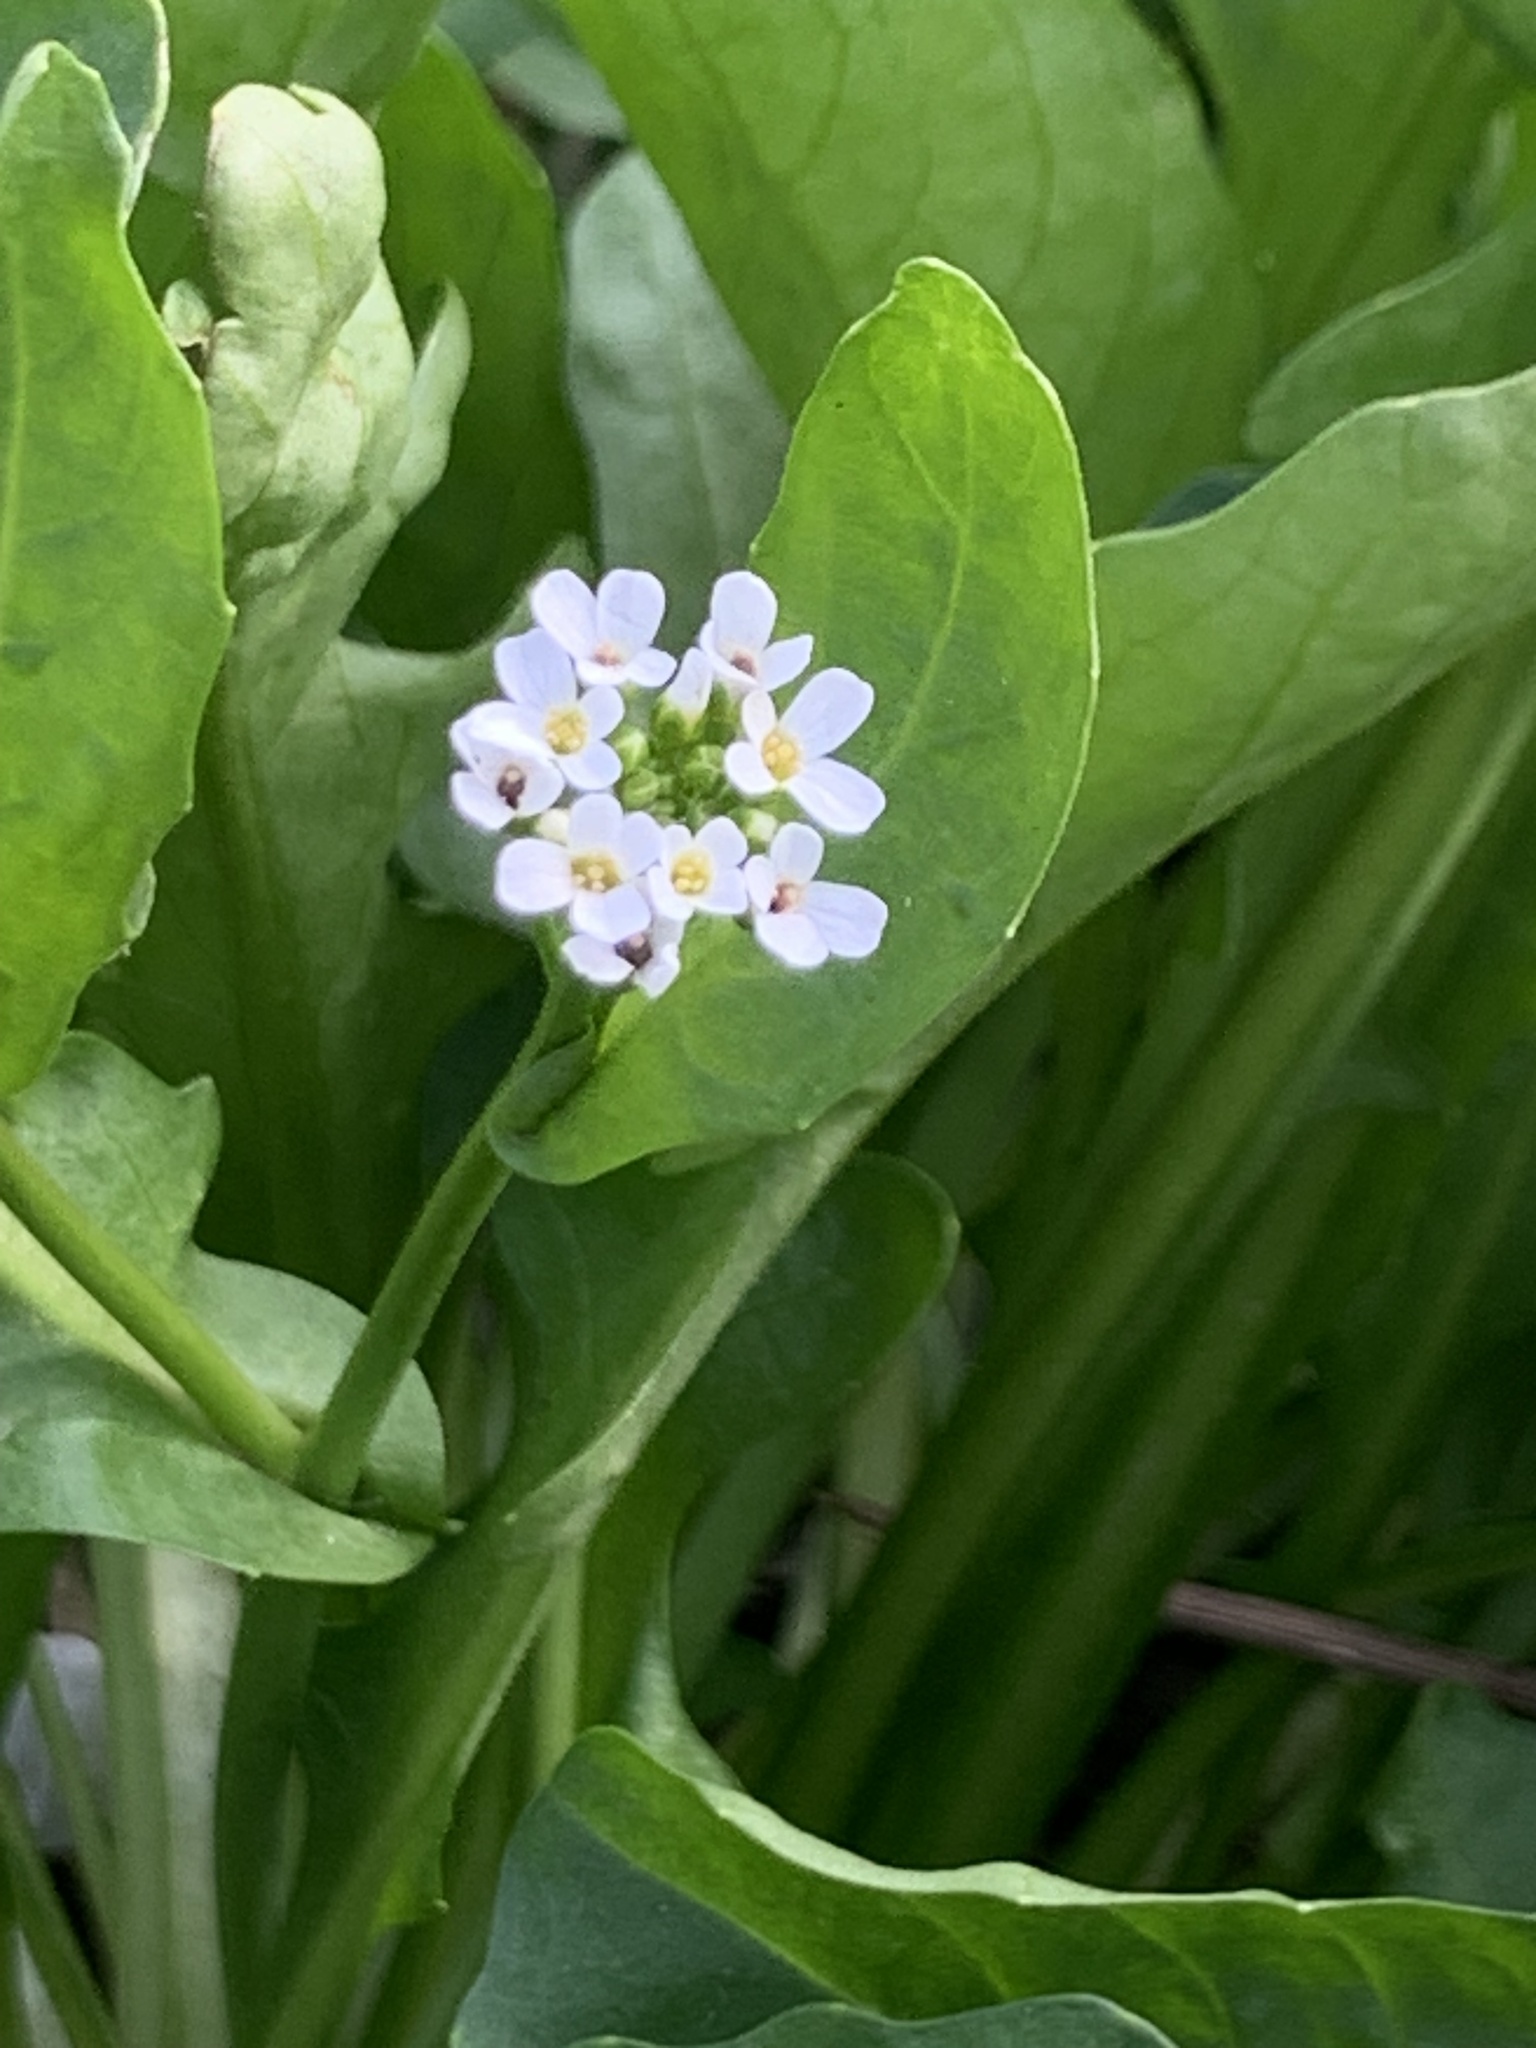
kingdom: Plantae
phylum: Tracheophyta
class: Magnoliopsida
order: Brassicales
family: Brassicaceae
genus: Calepina
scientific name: Calepina irregularis
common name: White ballmustard
